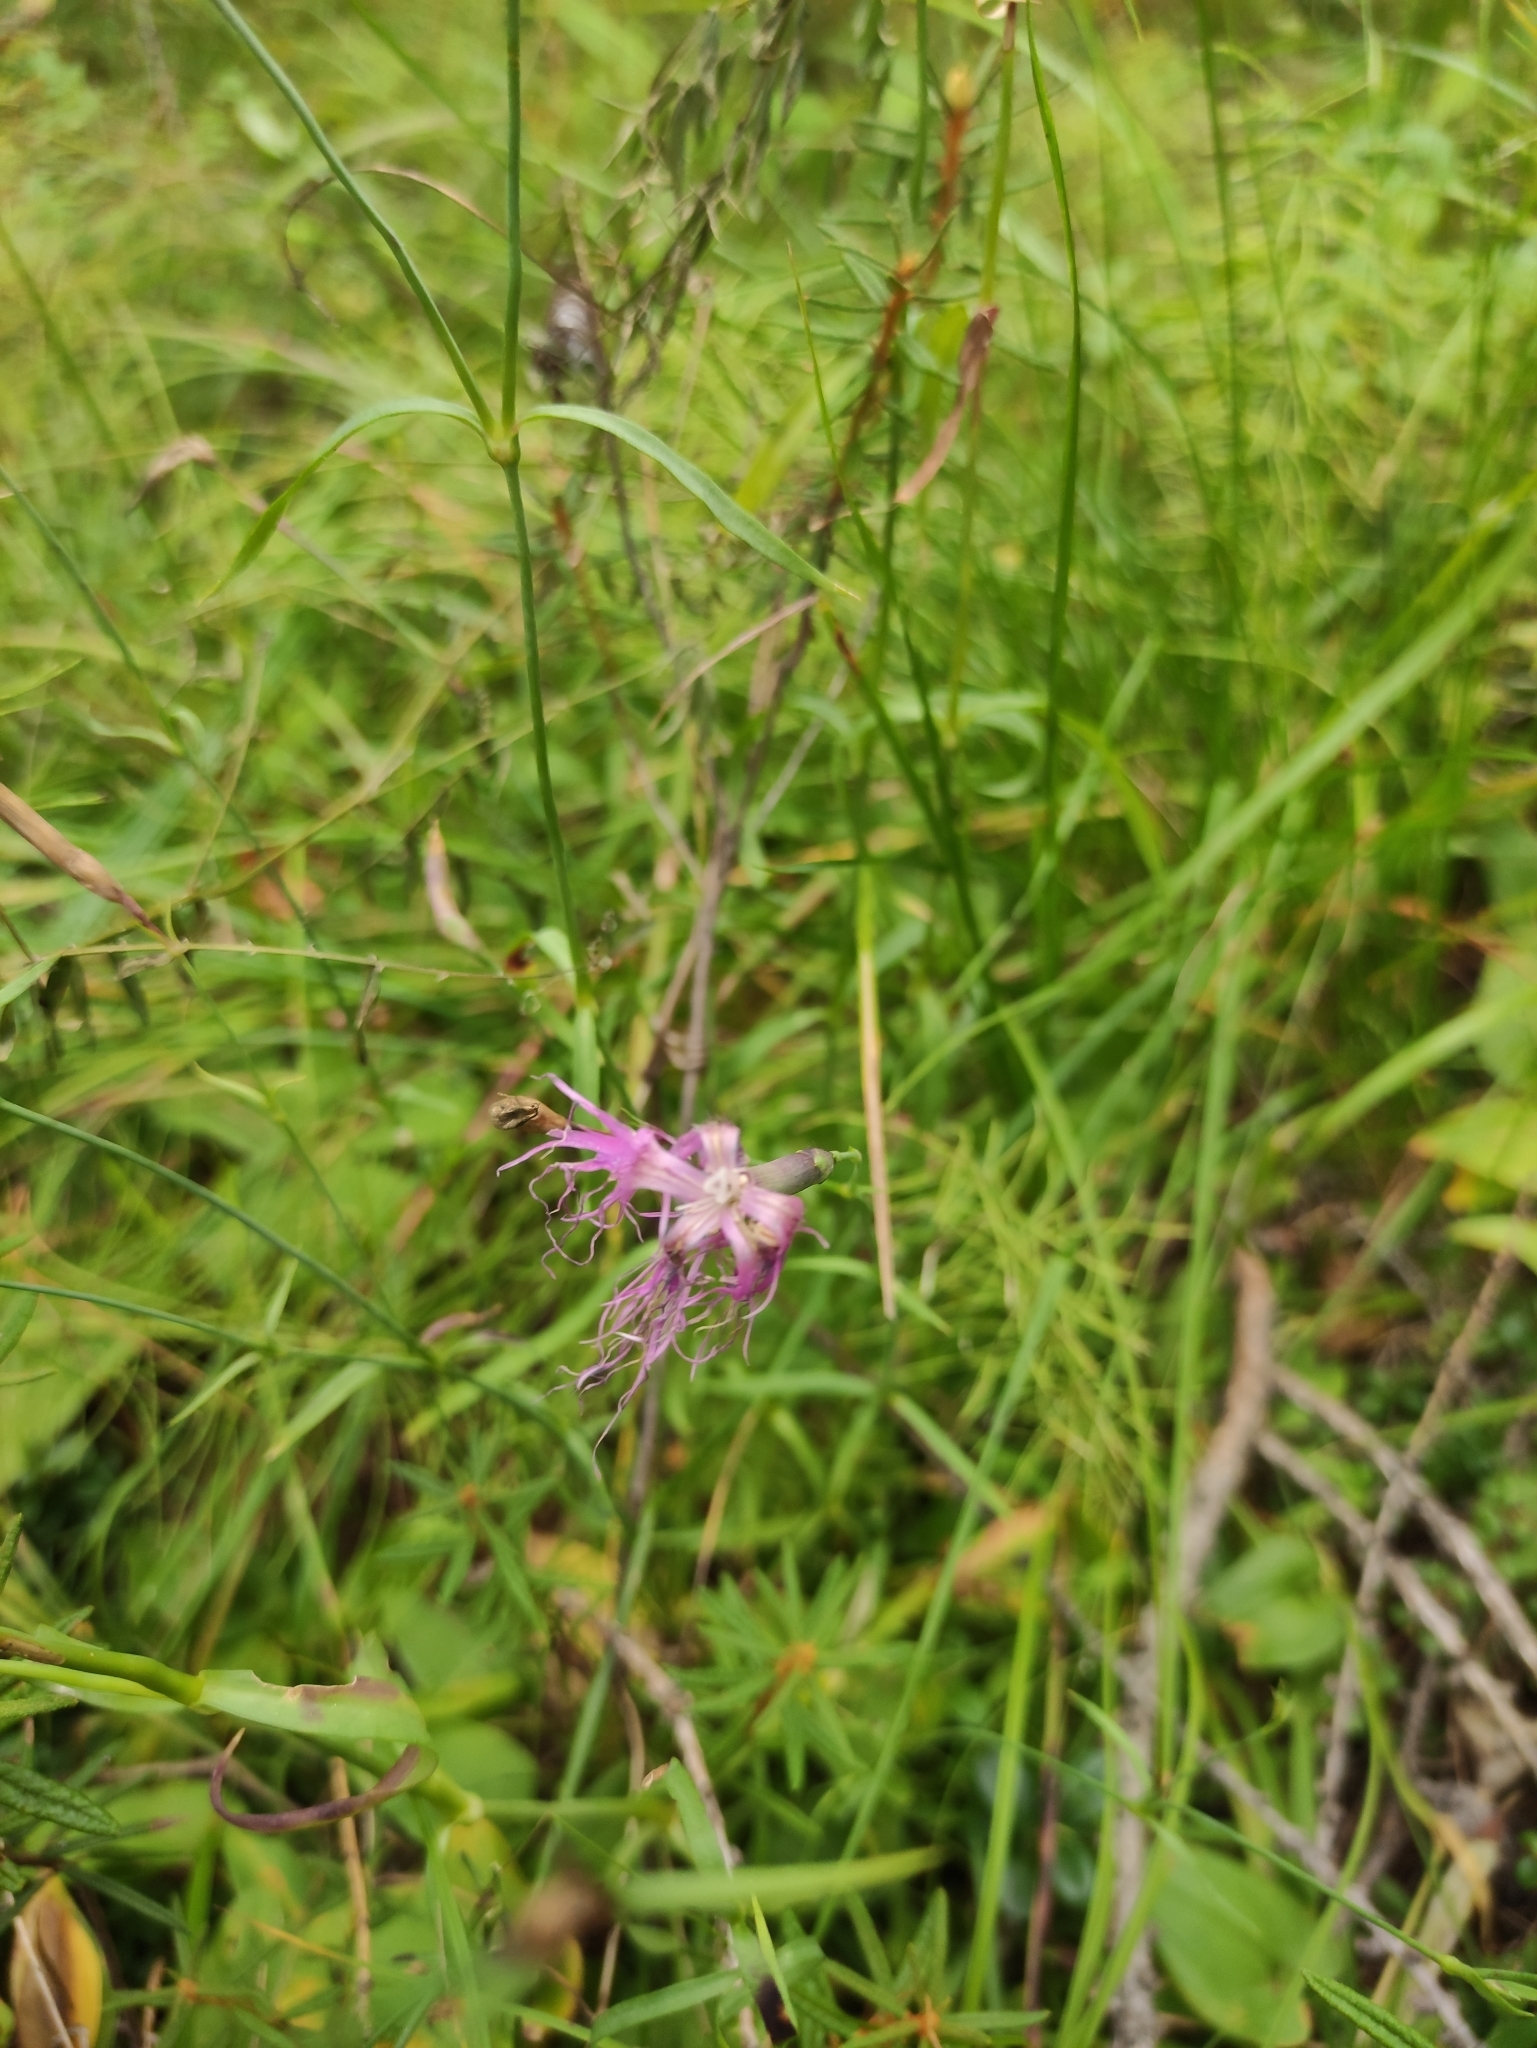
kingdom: Plantae
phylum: Tracheophyta
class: Magnoliopsida
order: Caryophyllales
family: Caryophyllaceae
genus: Dianthus
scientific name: Dianthus superbus
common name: Fringed pink
